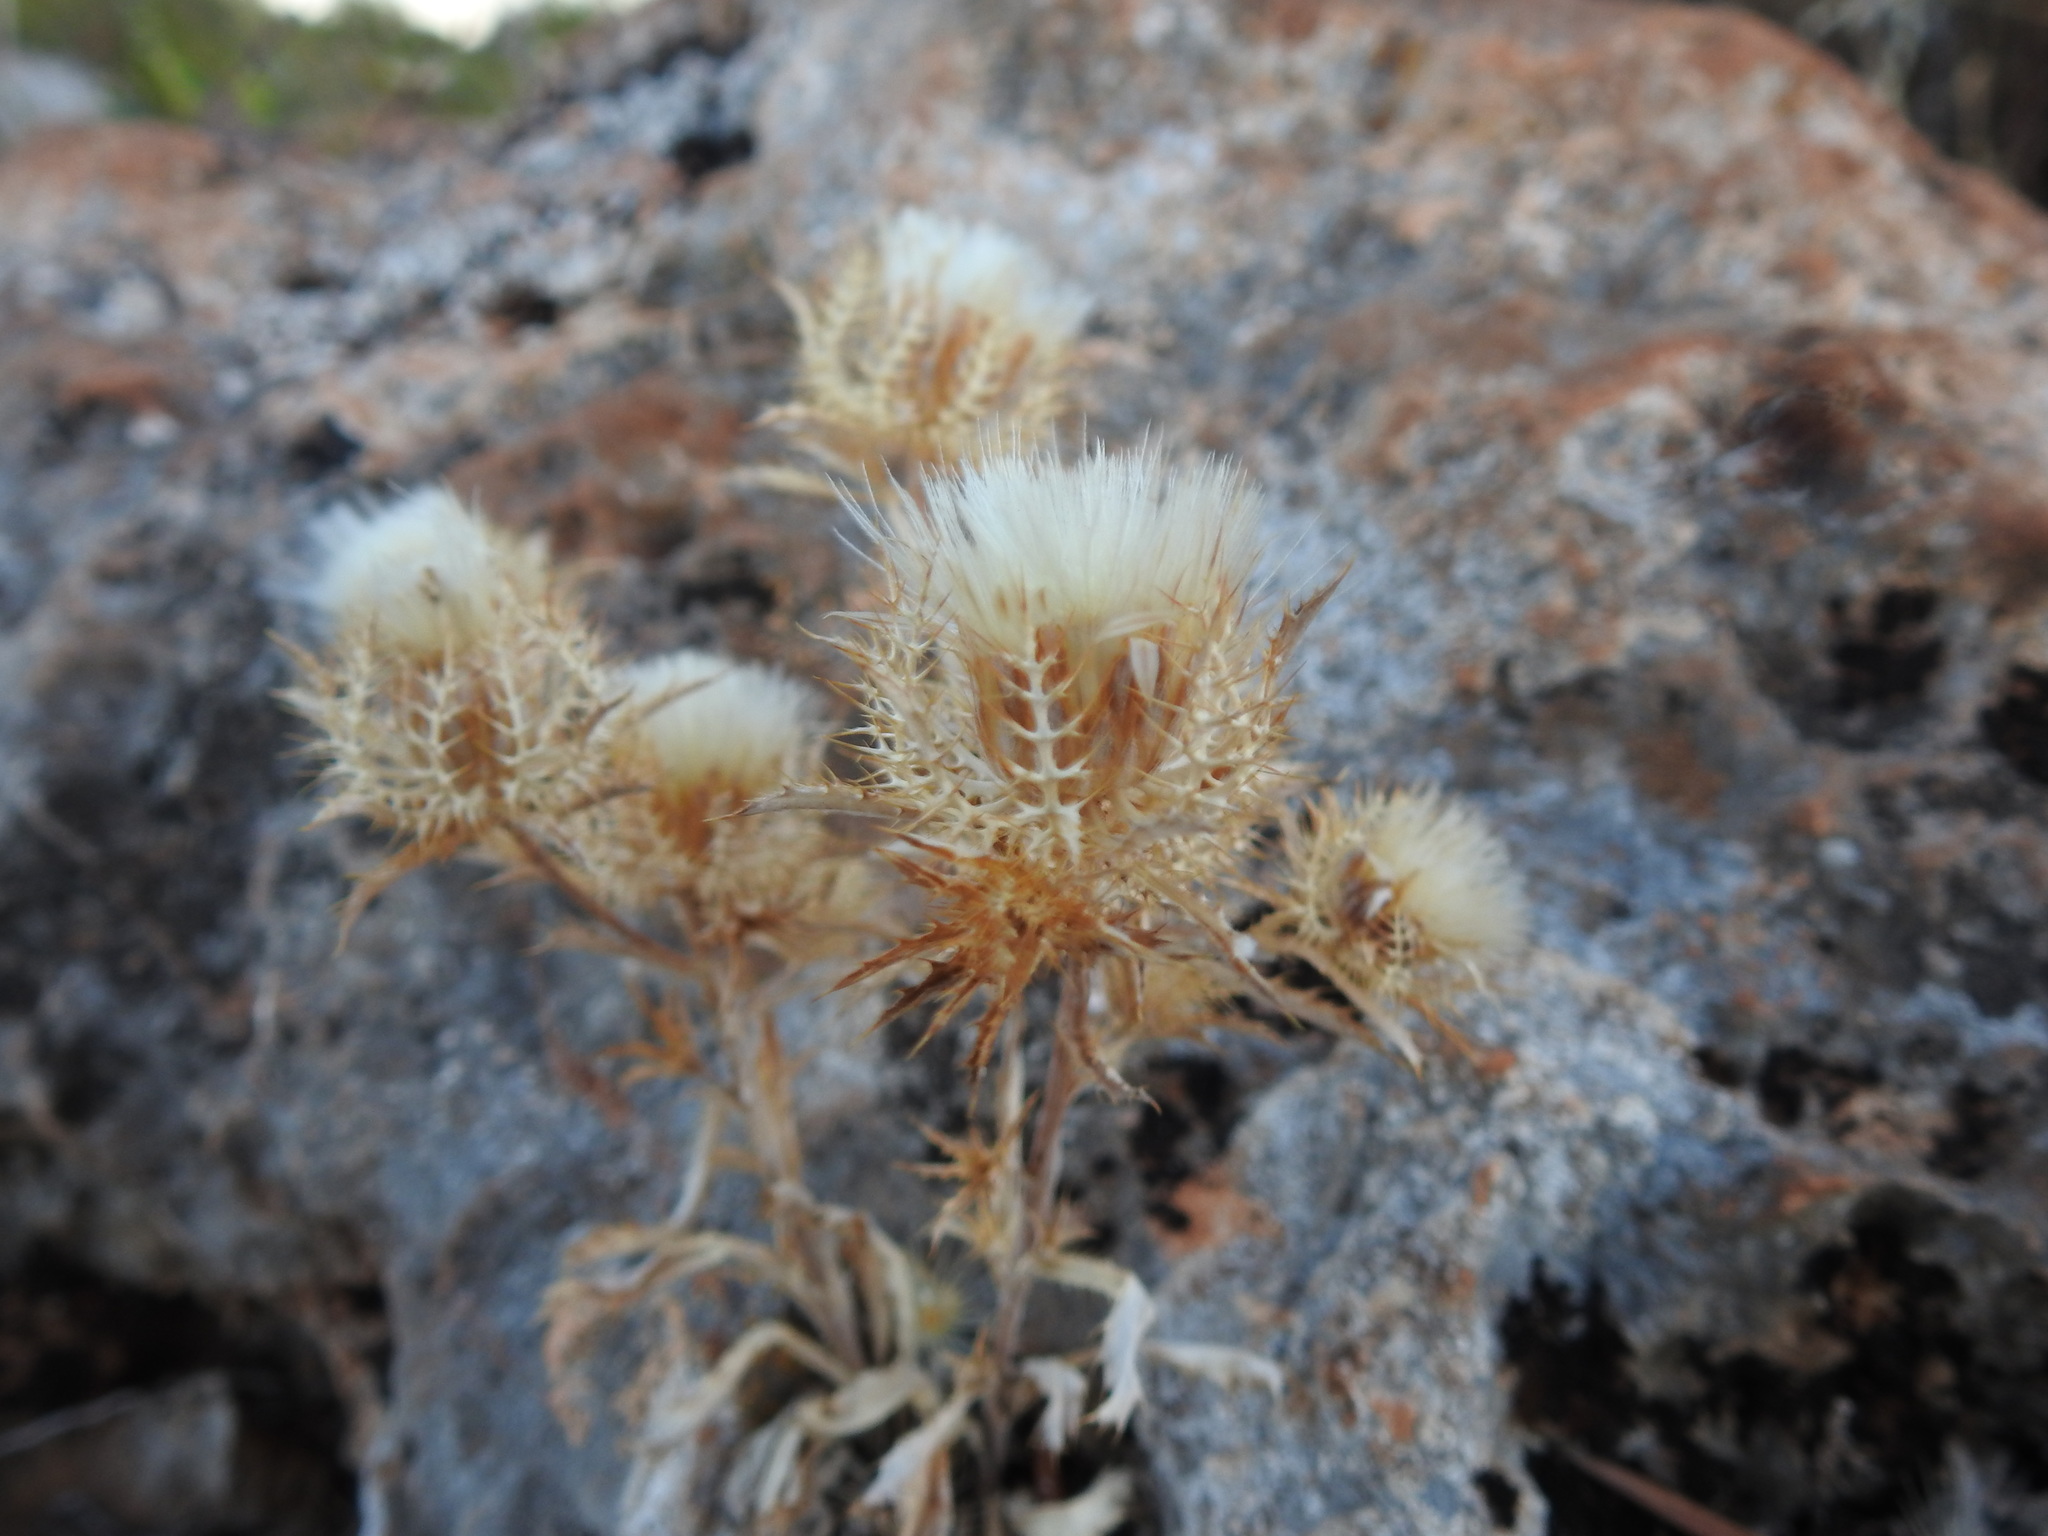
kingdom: Plantae
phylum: Tracheophyta
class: Magnoliopsida
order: Asterales
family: Asteraceae
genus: Atractylis
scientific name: Atractylis cancellata
